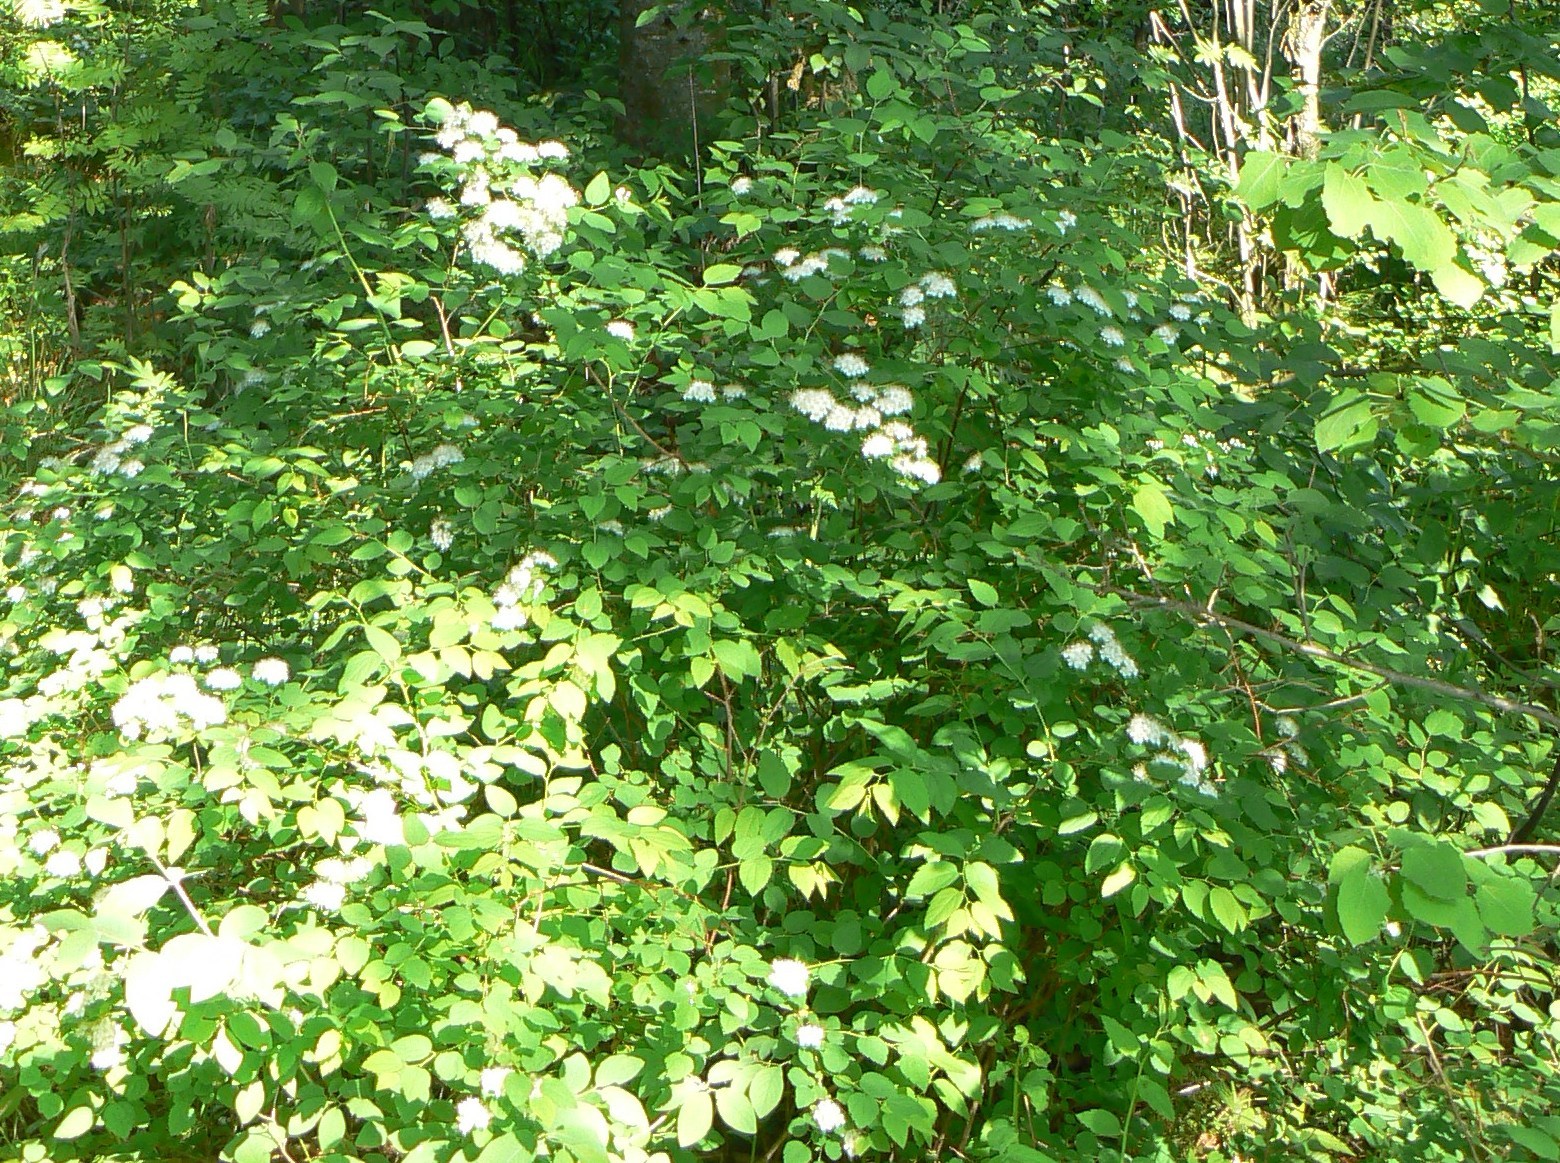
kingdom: Plantae
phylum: Tracheophyta
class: Magnoliopsida
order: Rosales
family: Rosaceae
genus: Spiraea
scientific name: Spiraea media
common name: Russian spiraea
